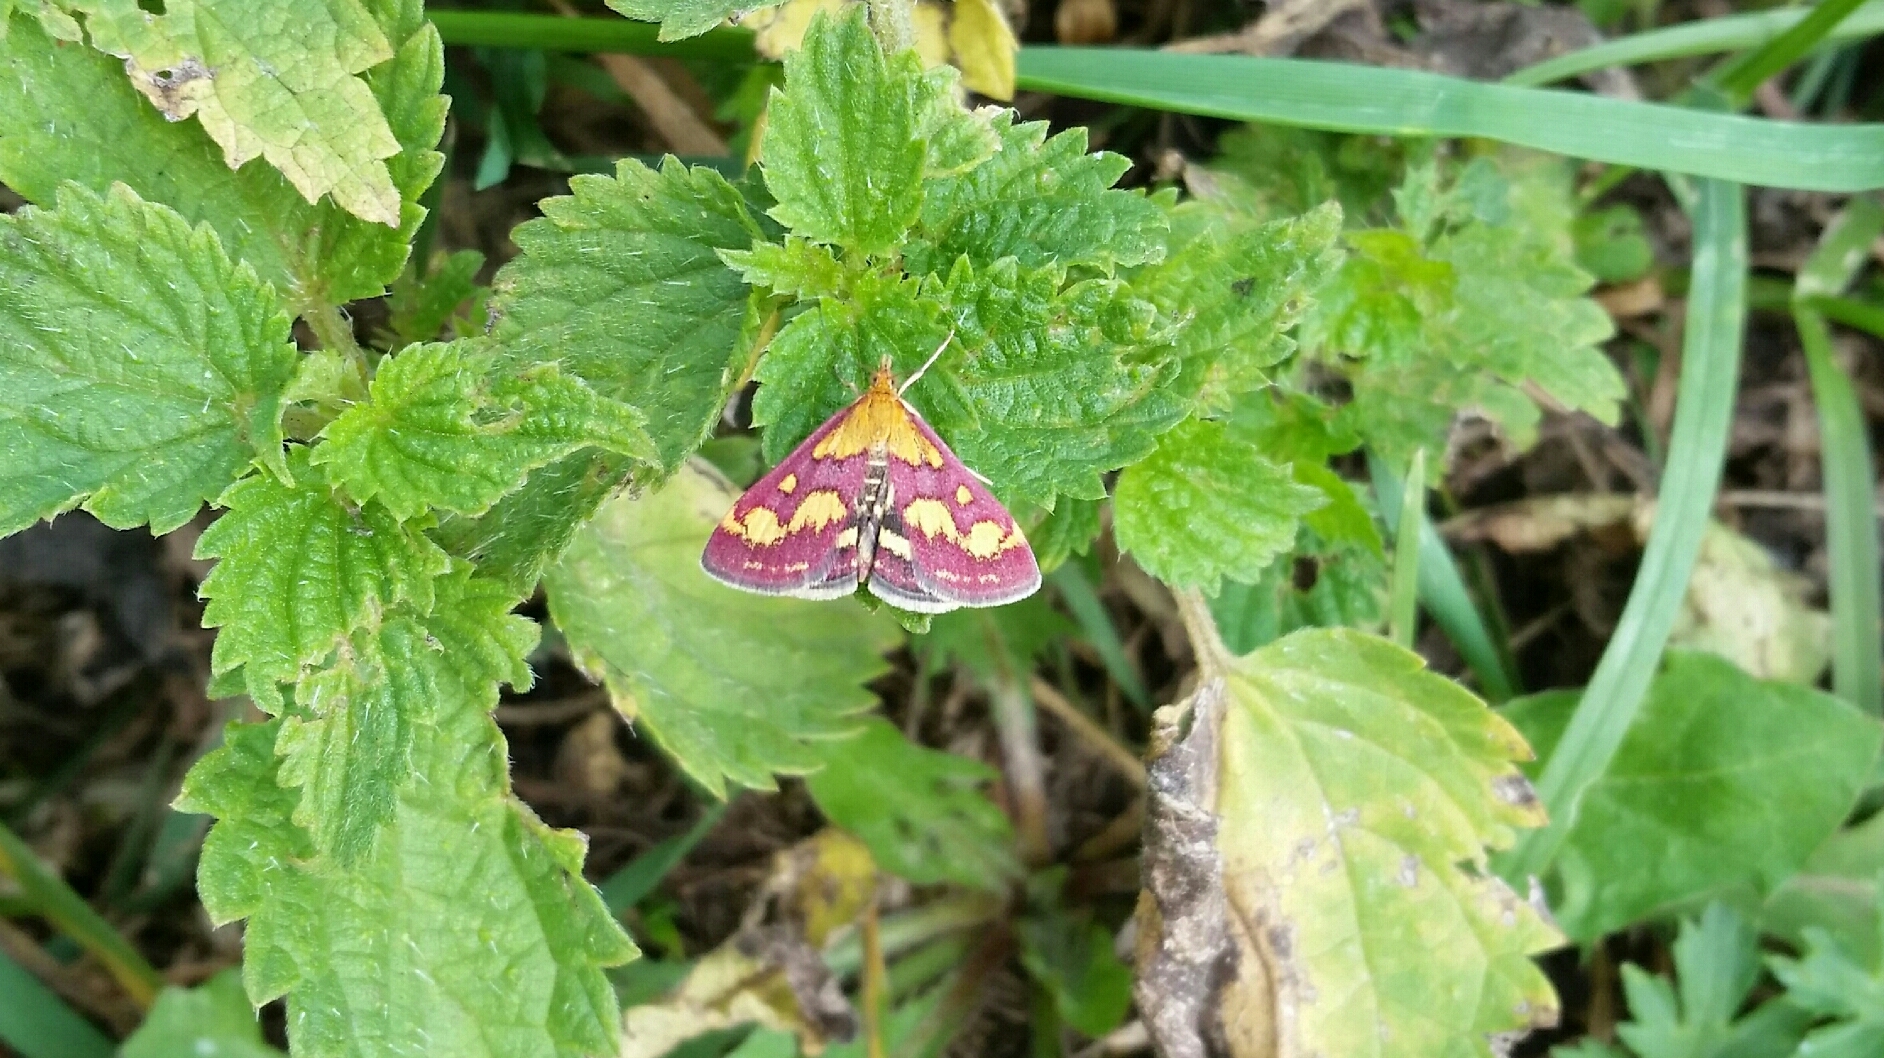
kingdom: Animalia
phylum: Arthropoda
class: Insecta
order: Lepidoptera
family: Crambidae
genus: Pyrausta
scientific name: Pyrausta purpuralis
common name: Common purple & gold
